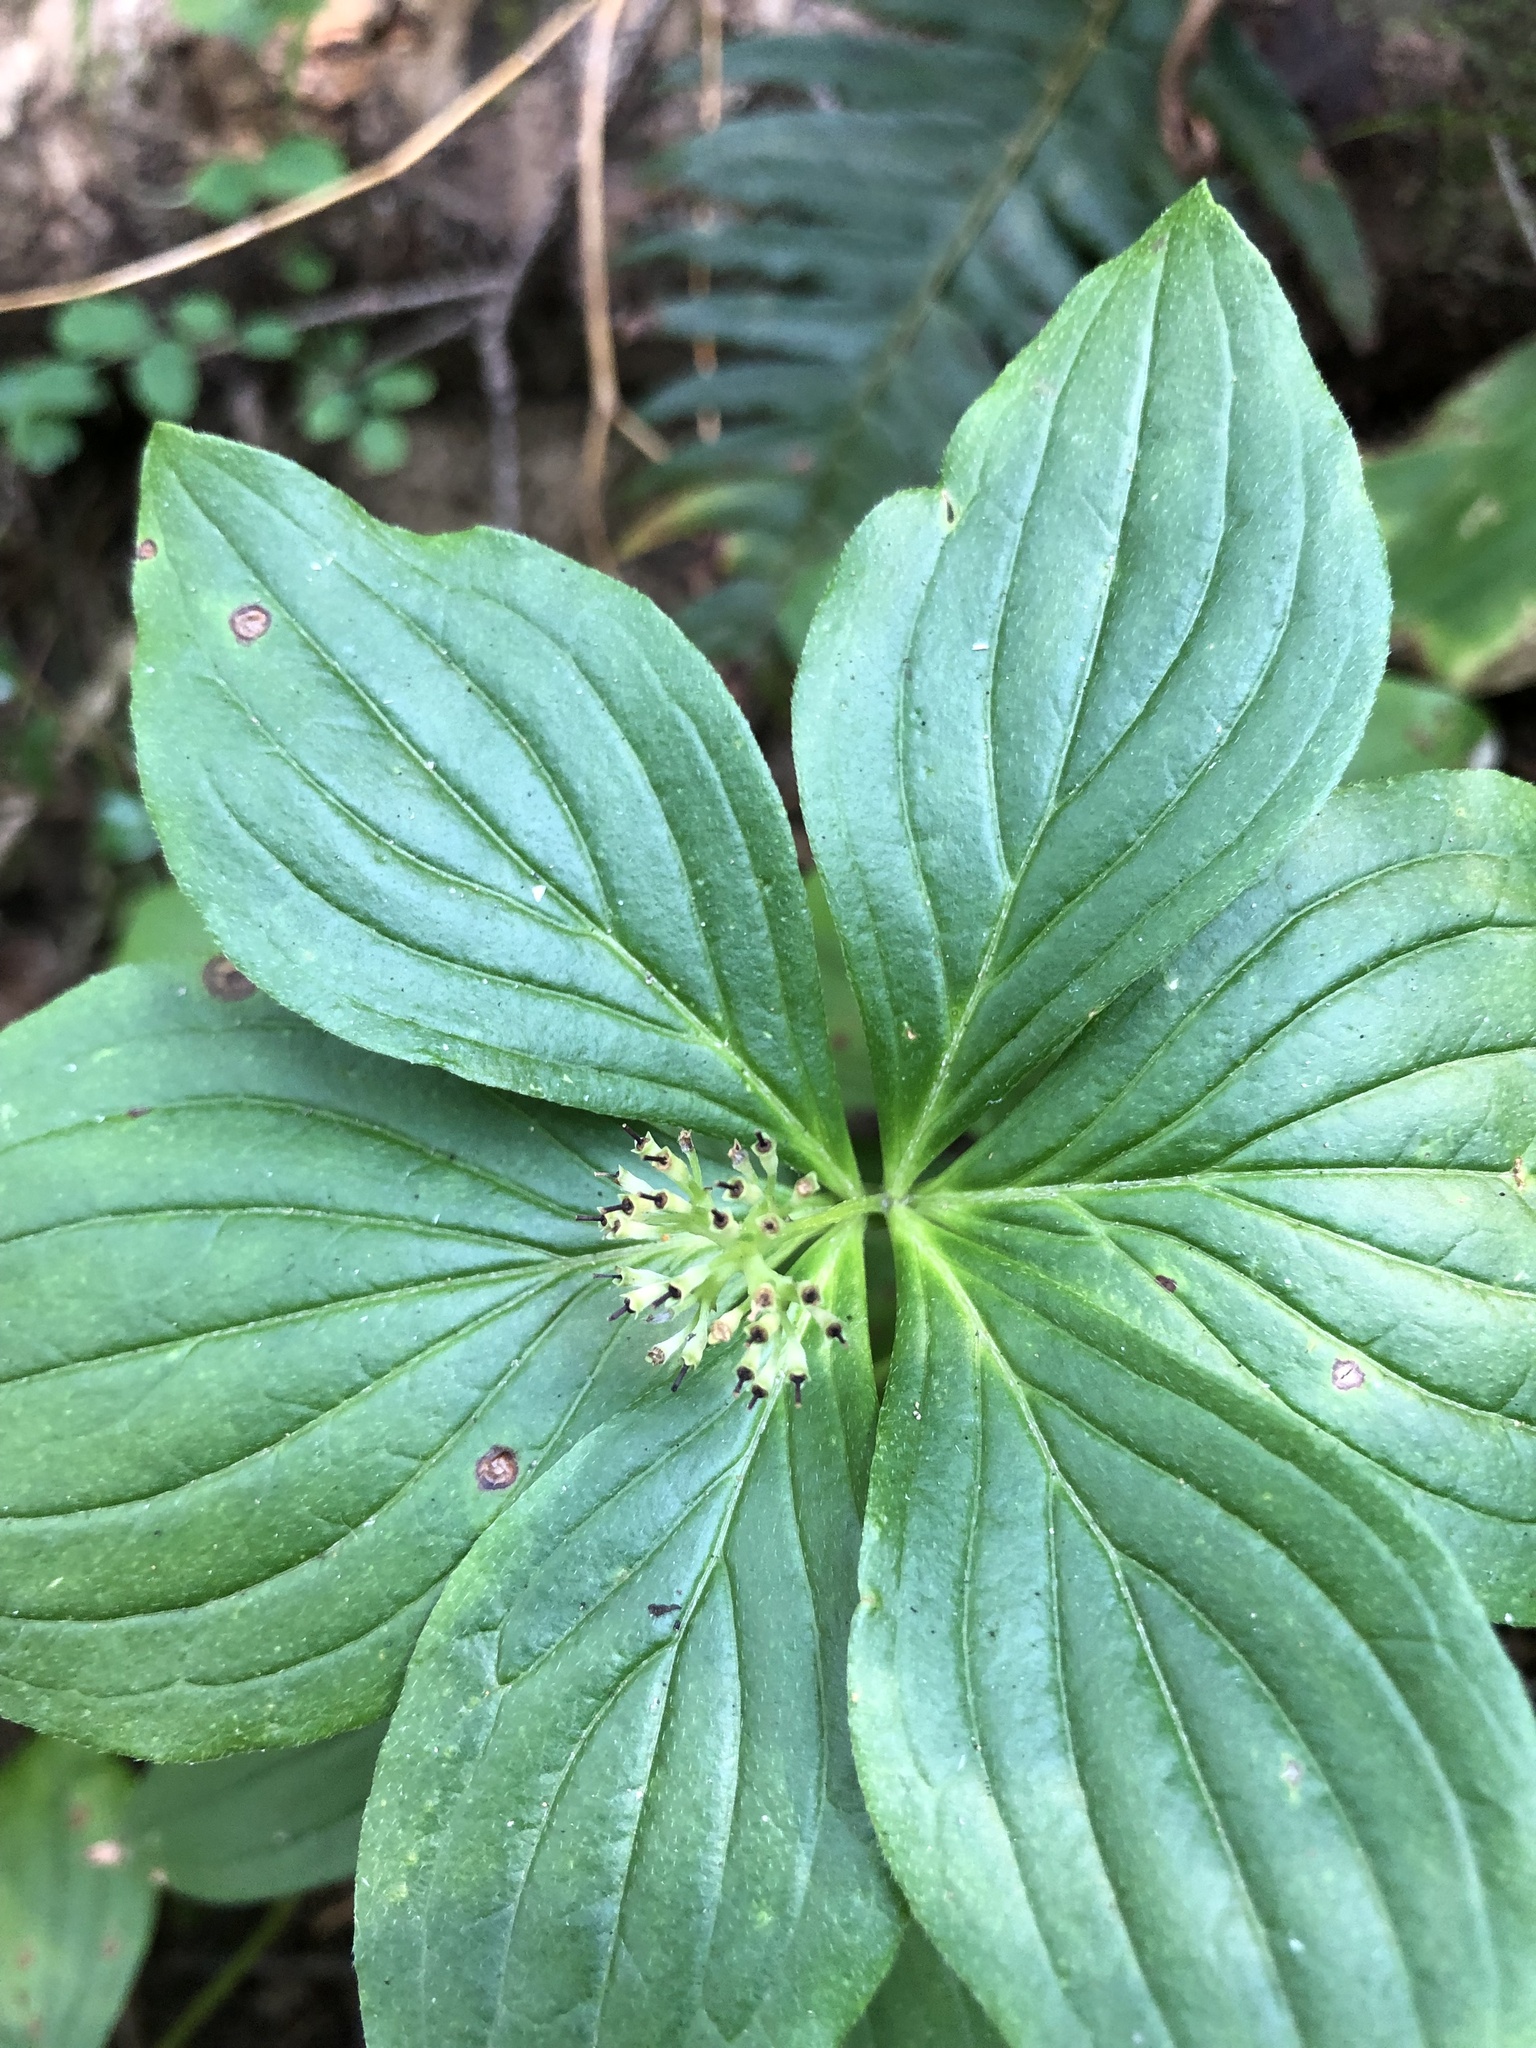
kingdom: Plantae
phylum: Tracheophyta
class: Magnoliopsida
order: Cornales
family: Cornaceae
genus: Cornus
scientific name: Cornus unalaschkensis
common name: Alaska bunchberry
